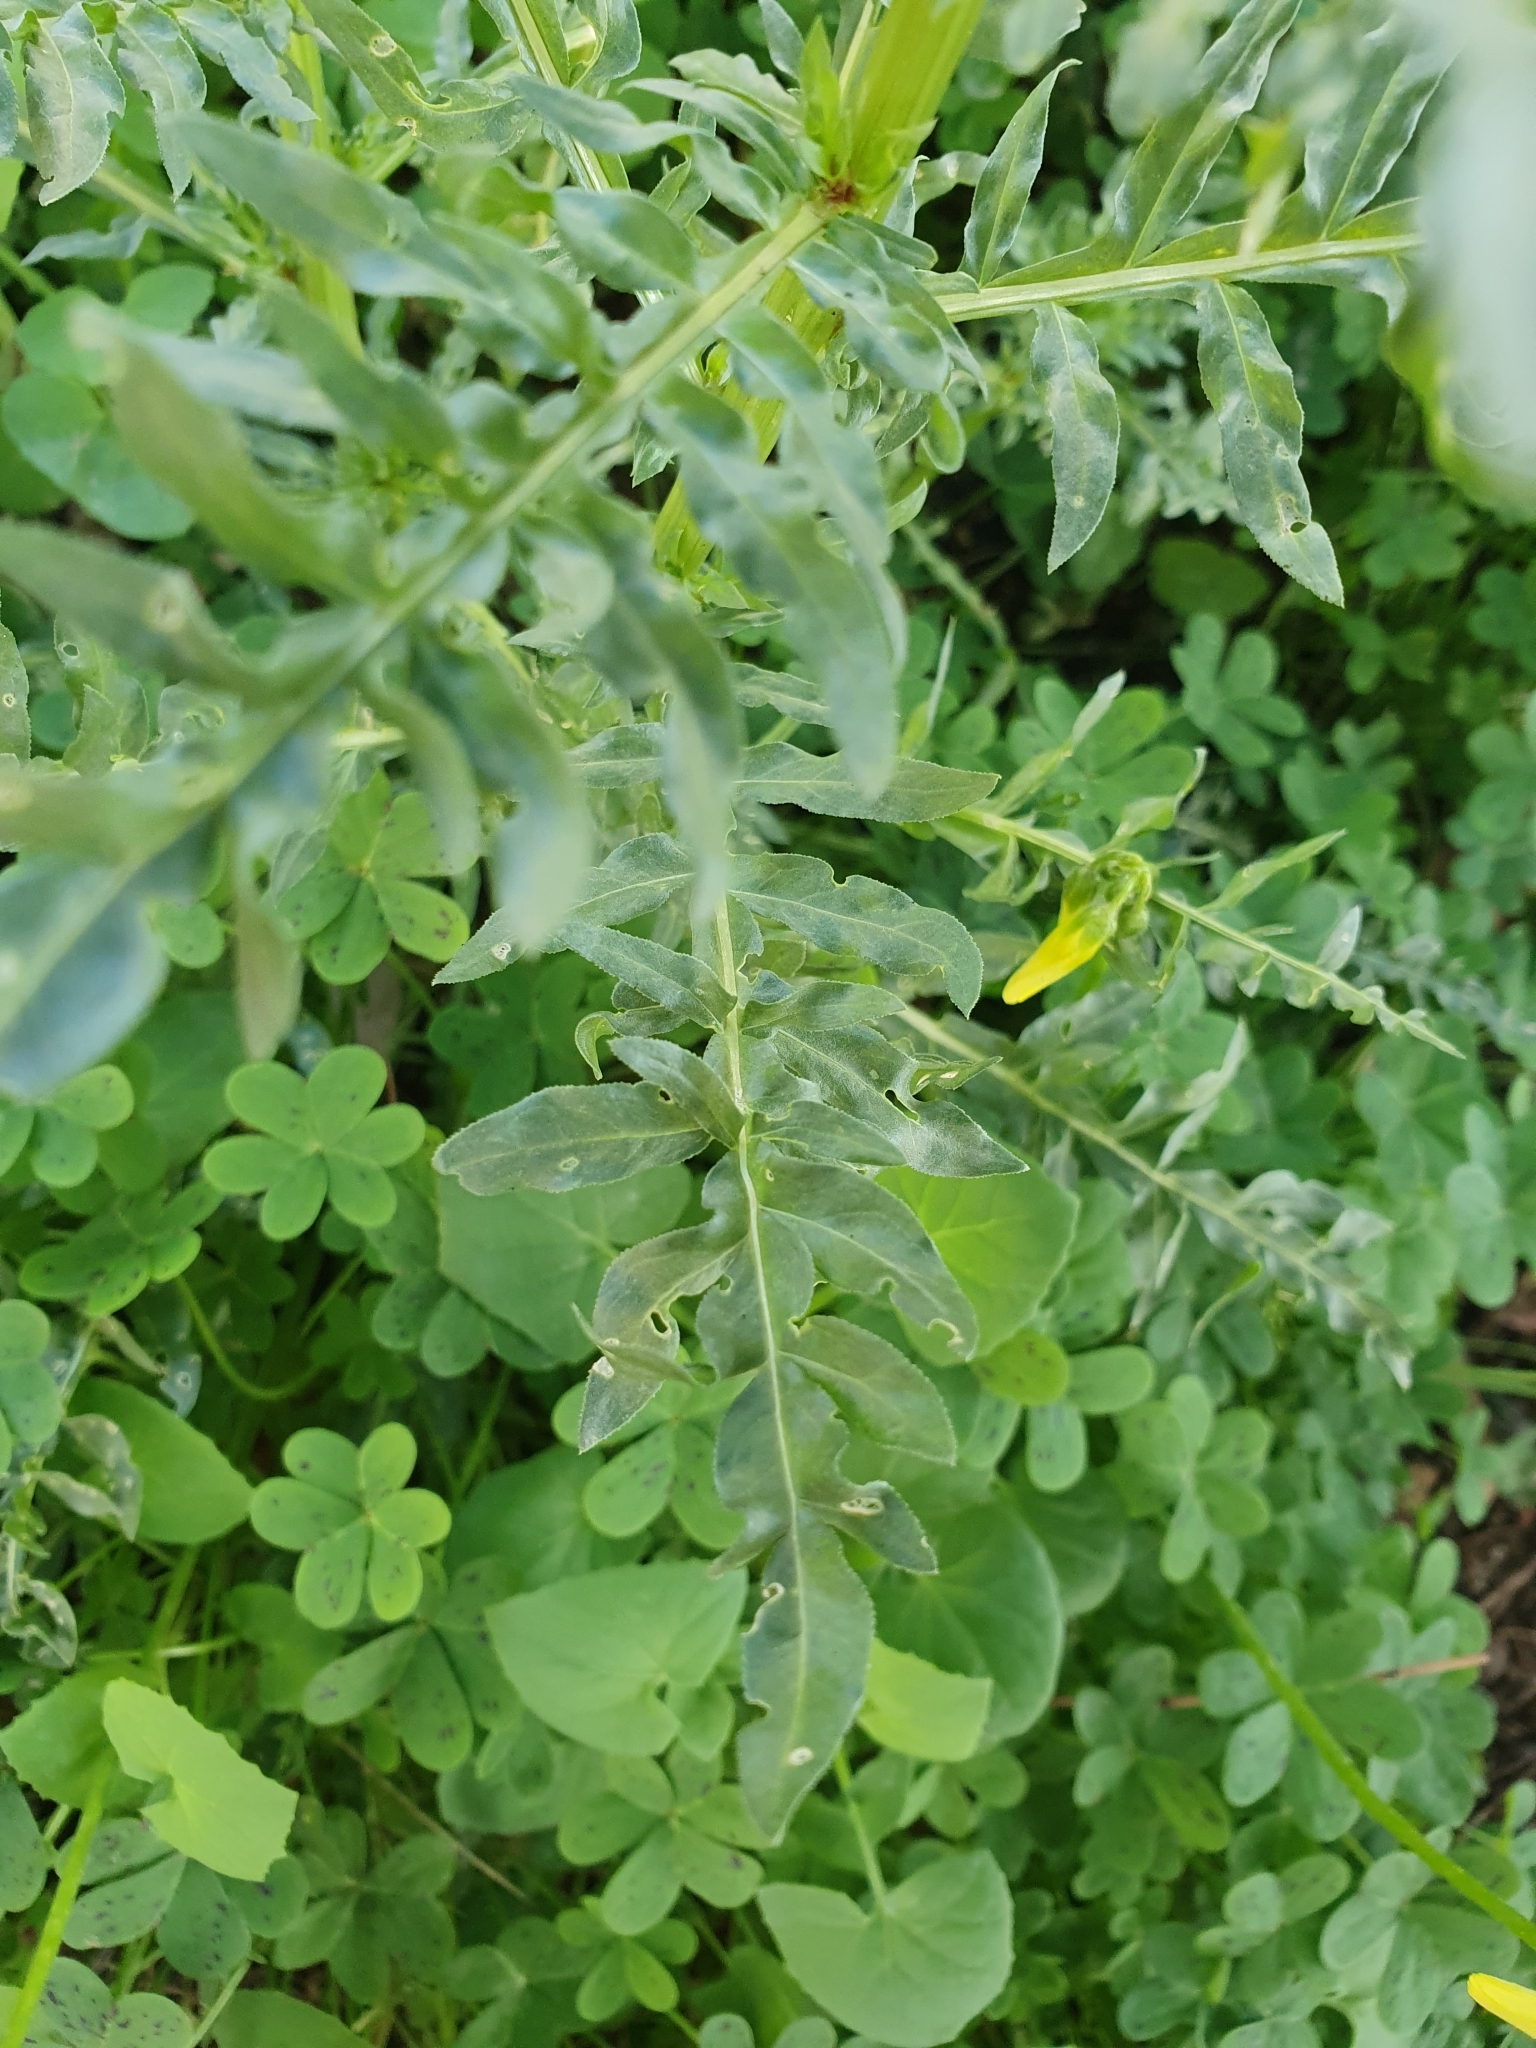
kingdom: Plantae
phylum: Tracheophyta
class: Magnoliopsida
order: Brassicales
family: Resedaceae
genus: Reseda
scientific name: Reseda alba
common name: White mignonette
